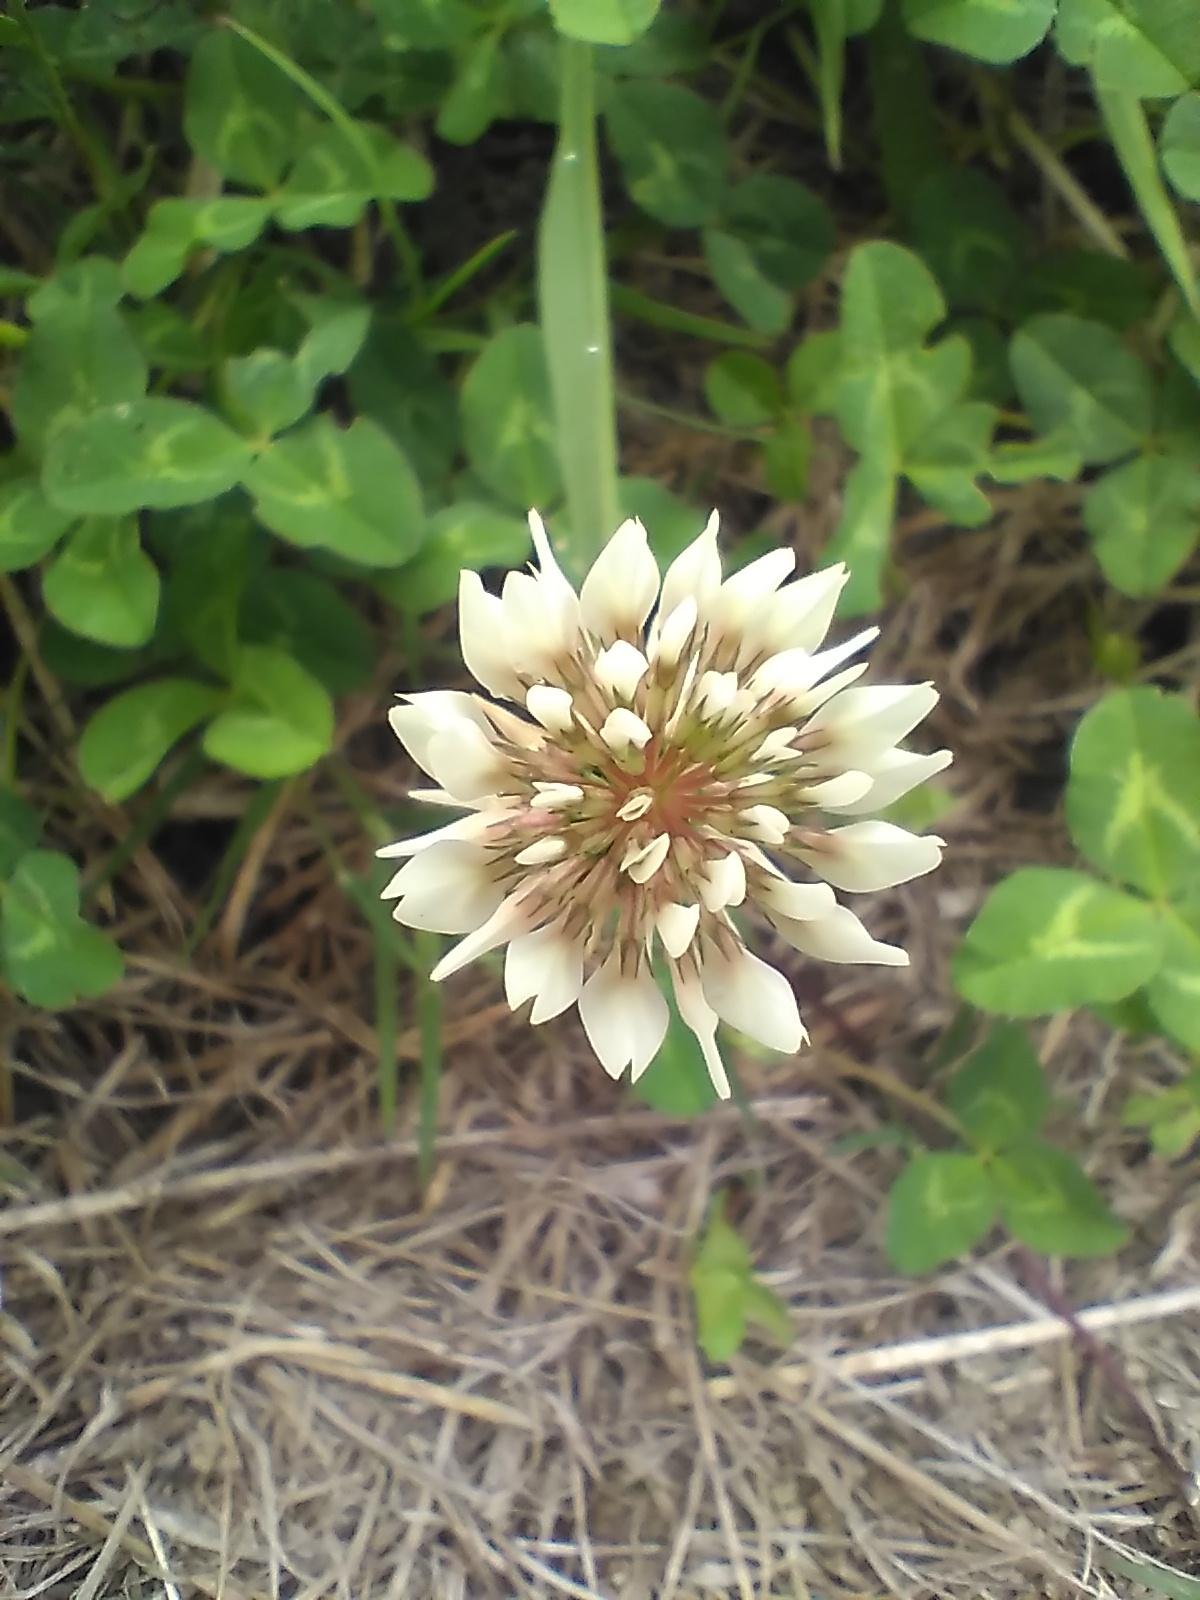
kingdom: Plantae
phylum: Tracheophyta
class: Magnoliopsida
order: Fabales
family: Fabaceae
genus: Trifolium
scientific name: Trifolium repens
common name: White clover
